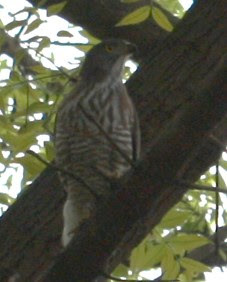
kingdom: Animalia
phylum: Chordata
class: Aves
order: Accipitriformes
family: Accipitridae
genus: Accipiter
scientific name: Accipiter trivirgatus
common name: Crested goshawk
